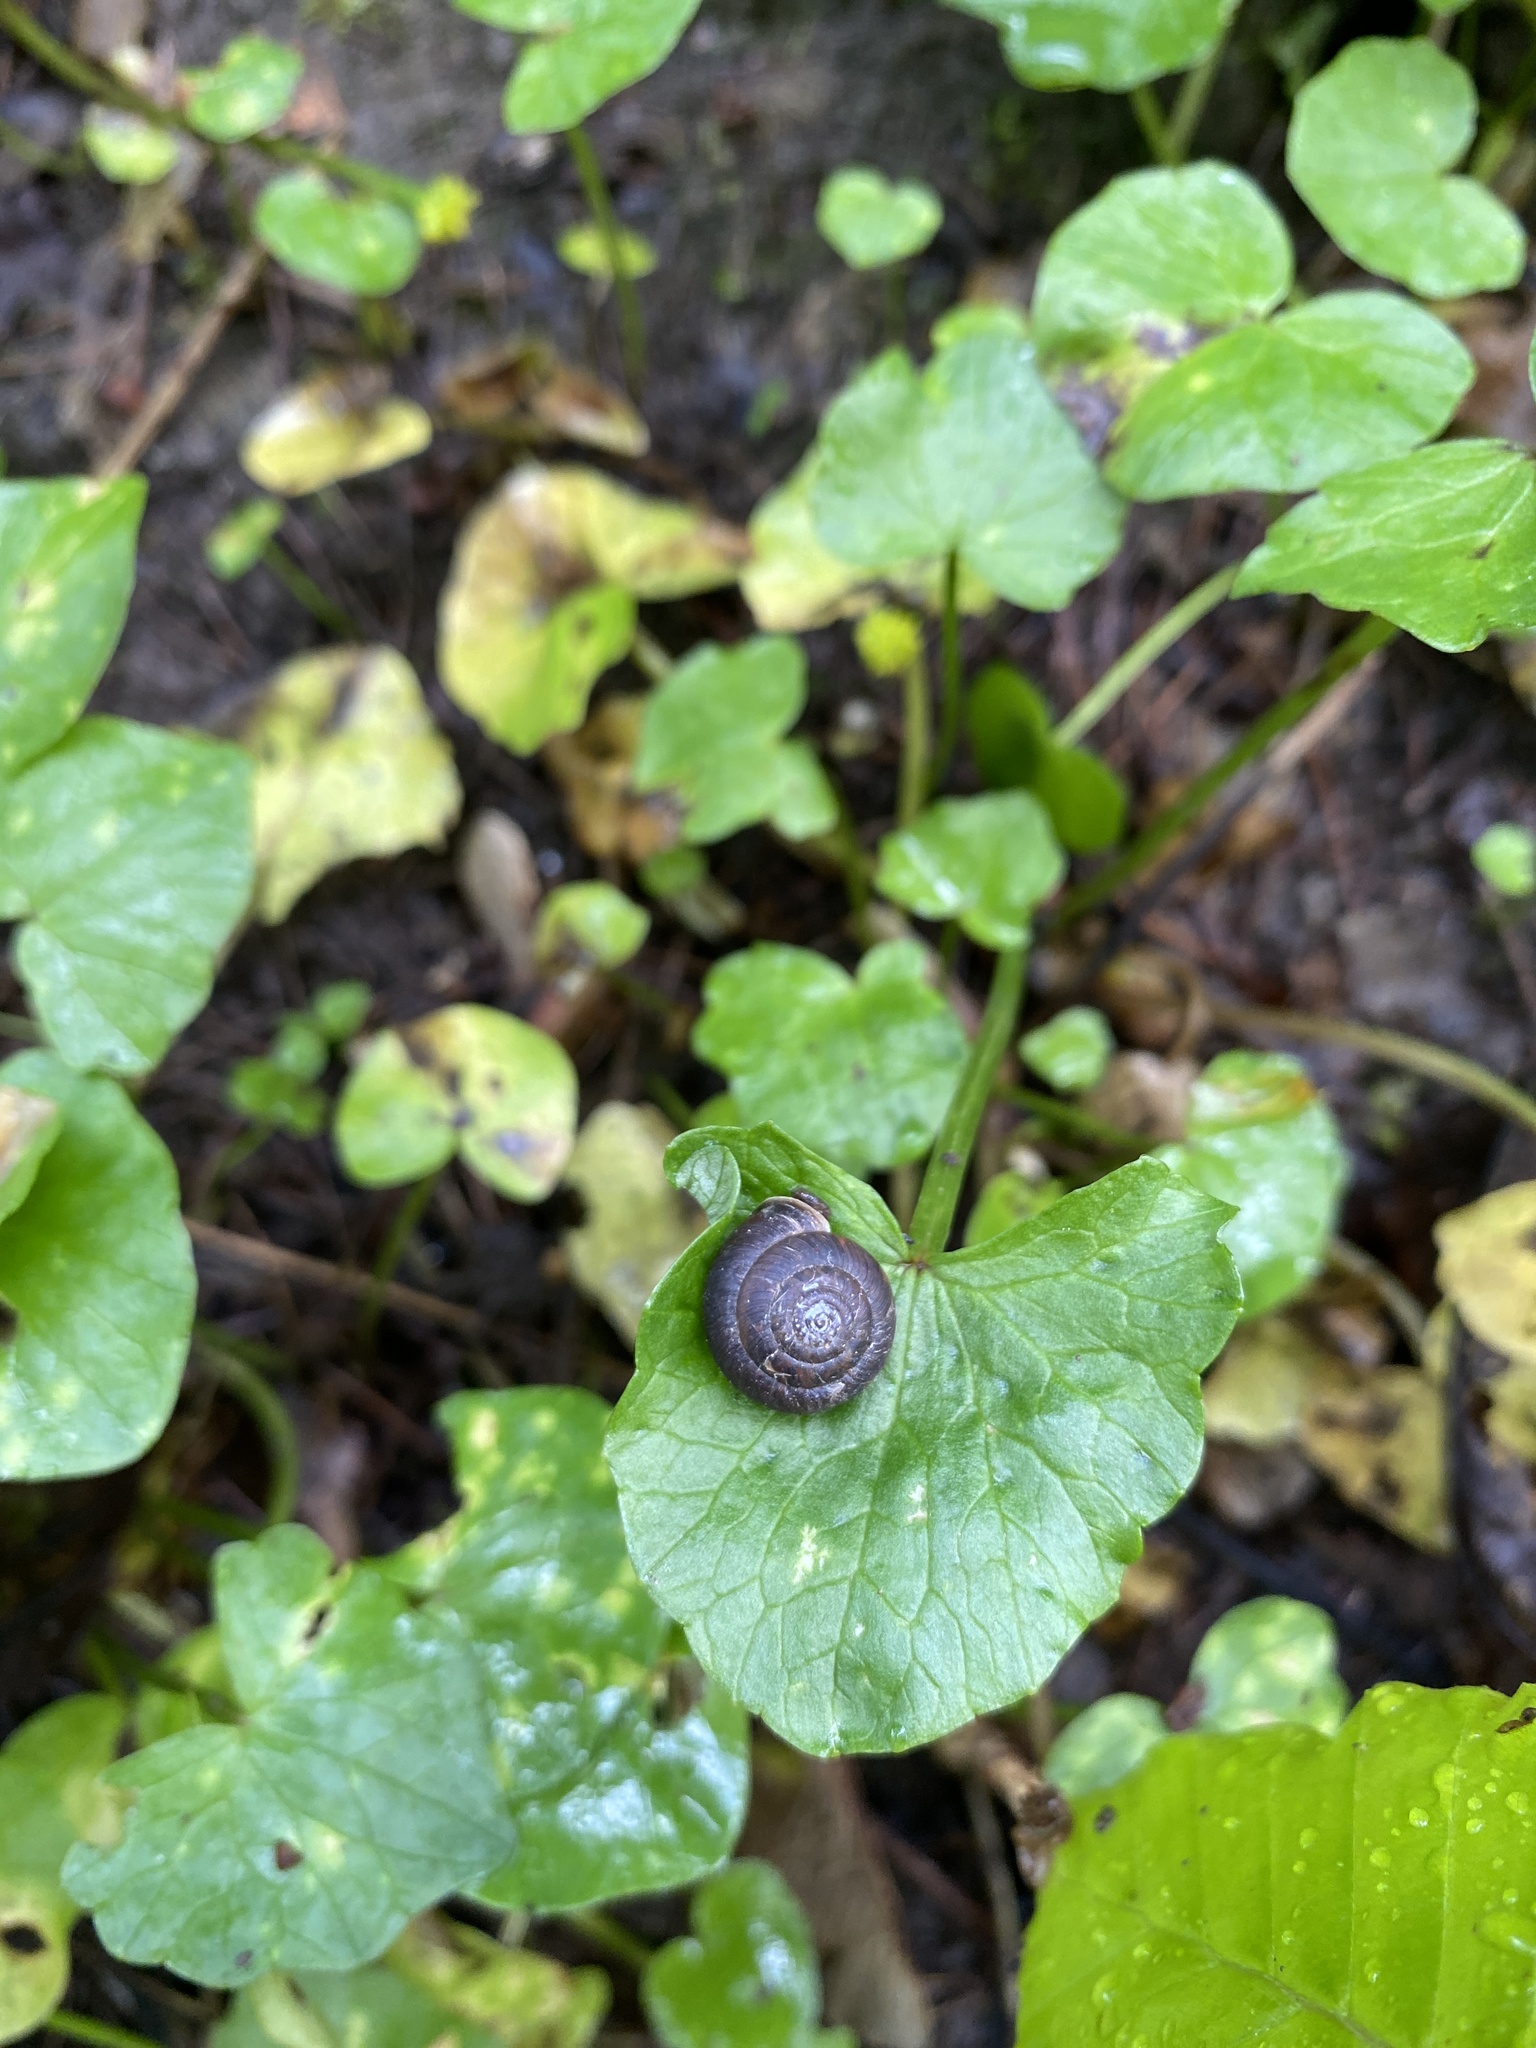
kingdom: Animalia
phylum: Mollusca
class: Gastropoda
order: Stylommatophora
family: Hygromiidae
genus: Trochulus
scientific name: Trochulus striolatus
